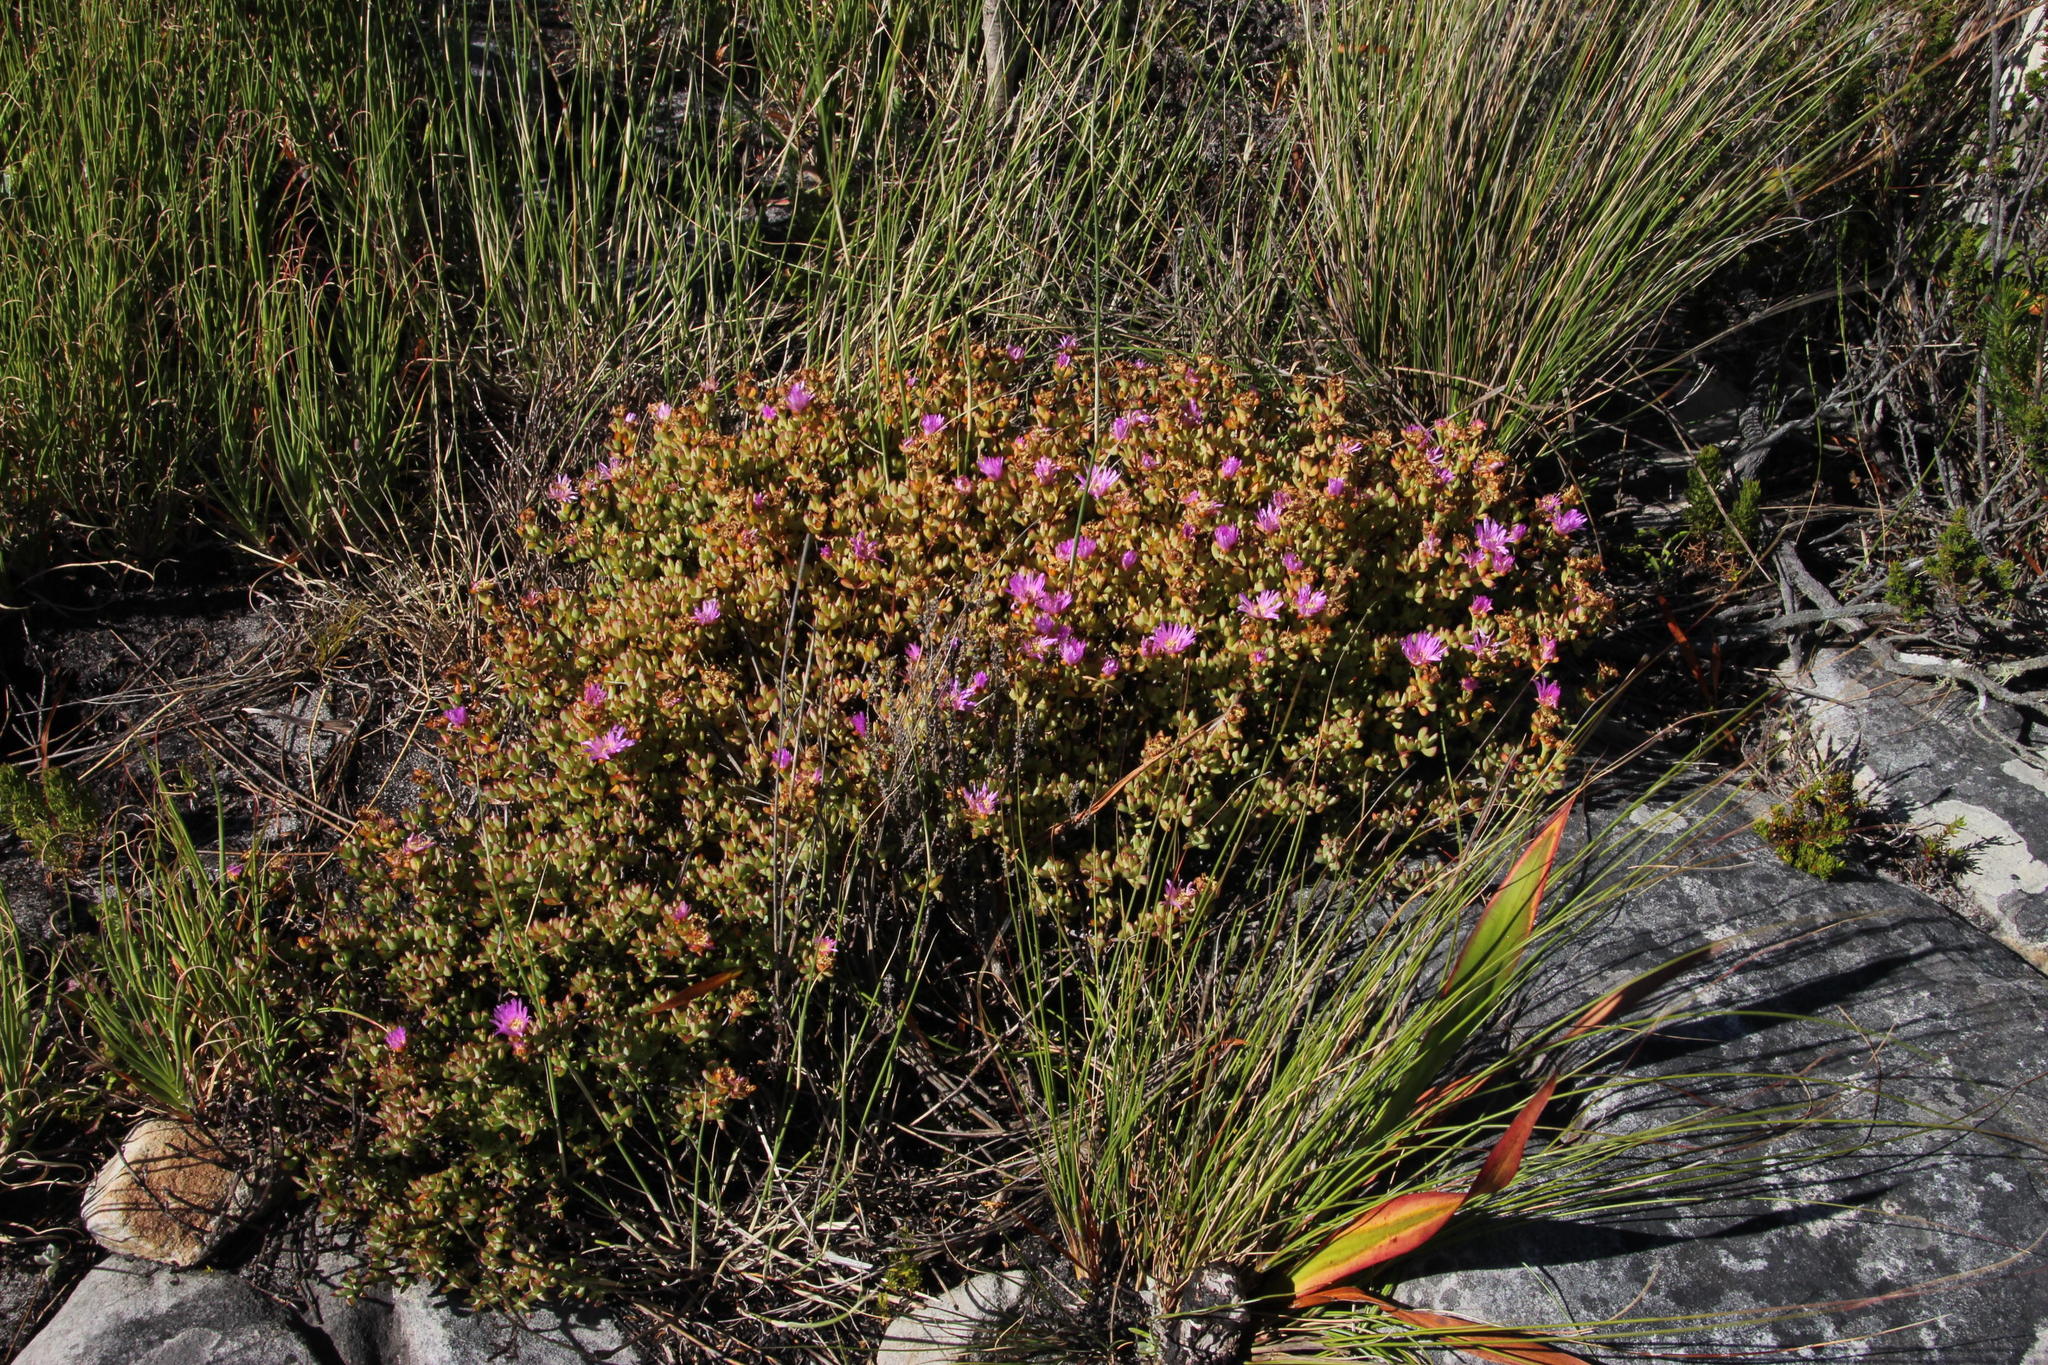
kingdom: Plantae
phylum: Tracheophyta
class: Magnoliopsida
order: Caryophyllales
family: Aizoaceae
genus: Oscularia
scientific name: Oscularia falciformis
